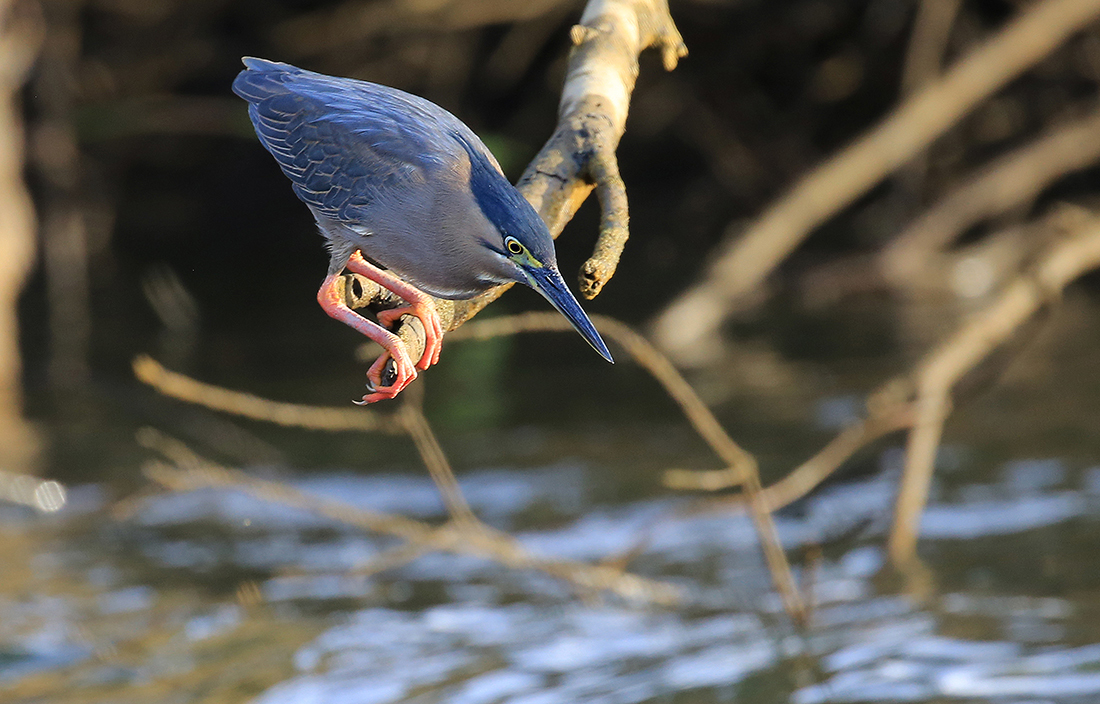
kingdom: Animalia
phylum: Chordata
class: Aves
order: Pelecaniformes
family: Ardeidae
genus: Butorides
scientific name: Butorides striata
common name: Striated heron
